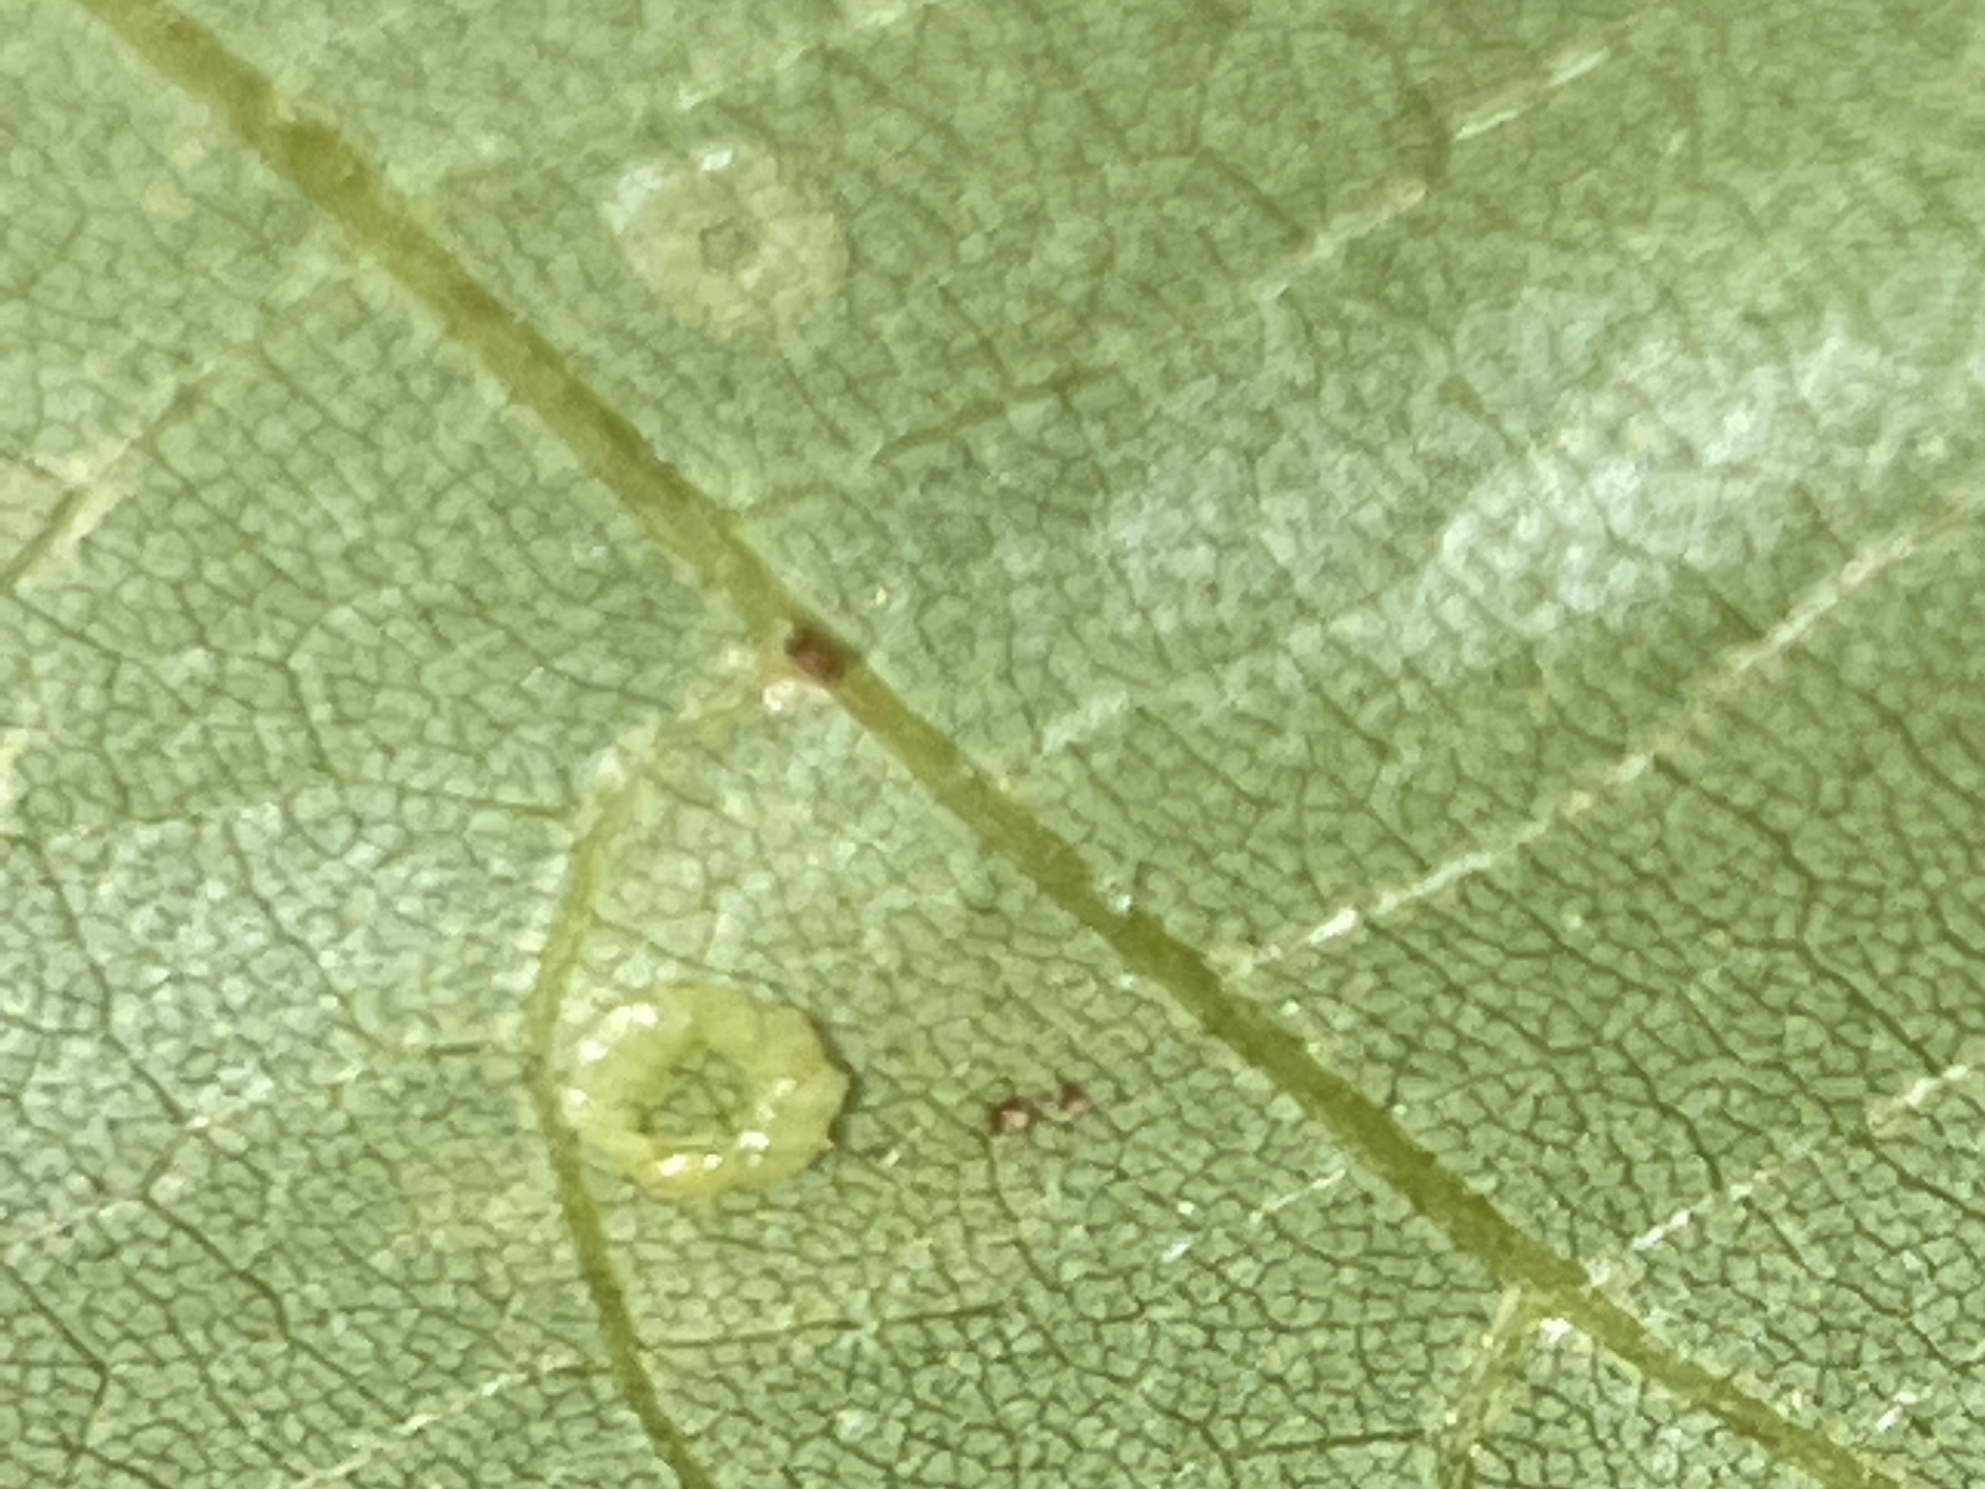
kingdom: Animalia
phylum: Arthropoda
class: Insecta
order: Diptera
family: Cecidomyiidae
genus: Gliaspilota
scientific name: Gliaspilota glutinosa
